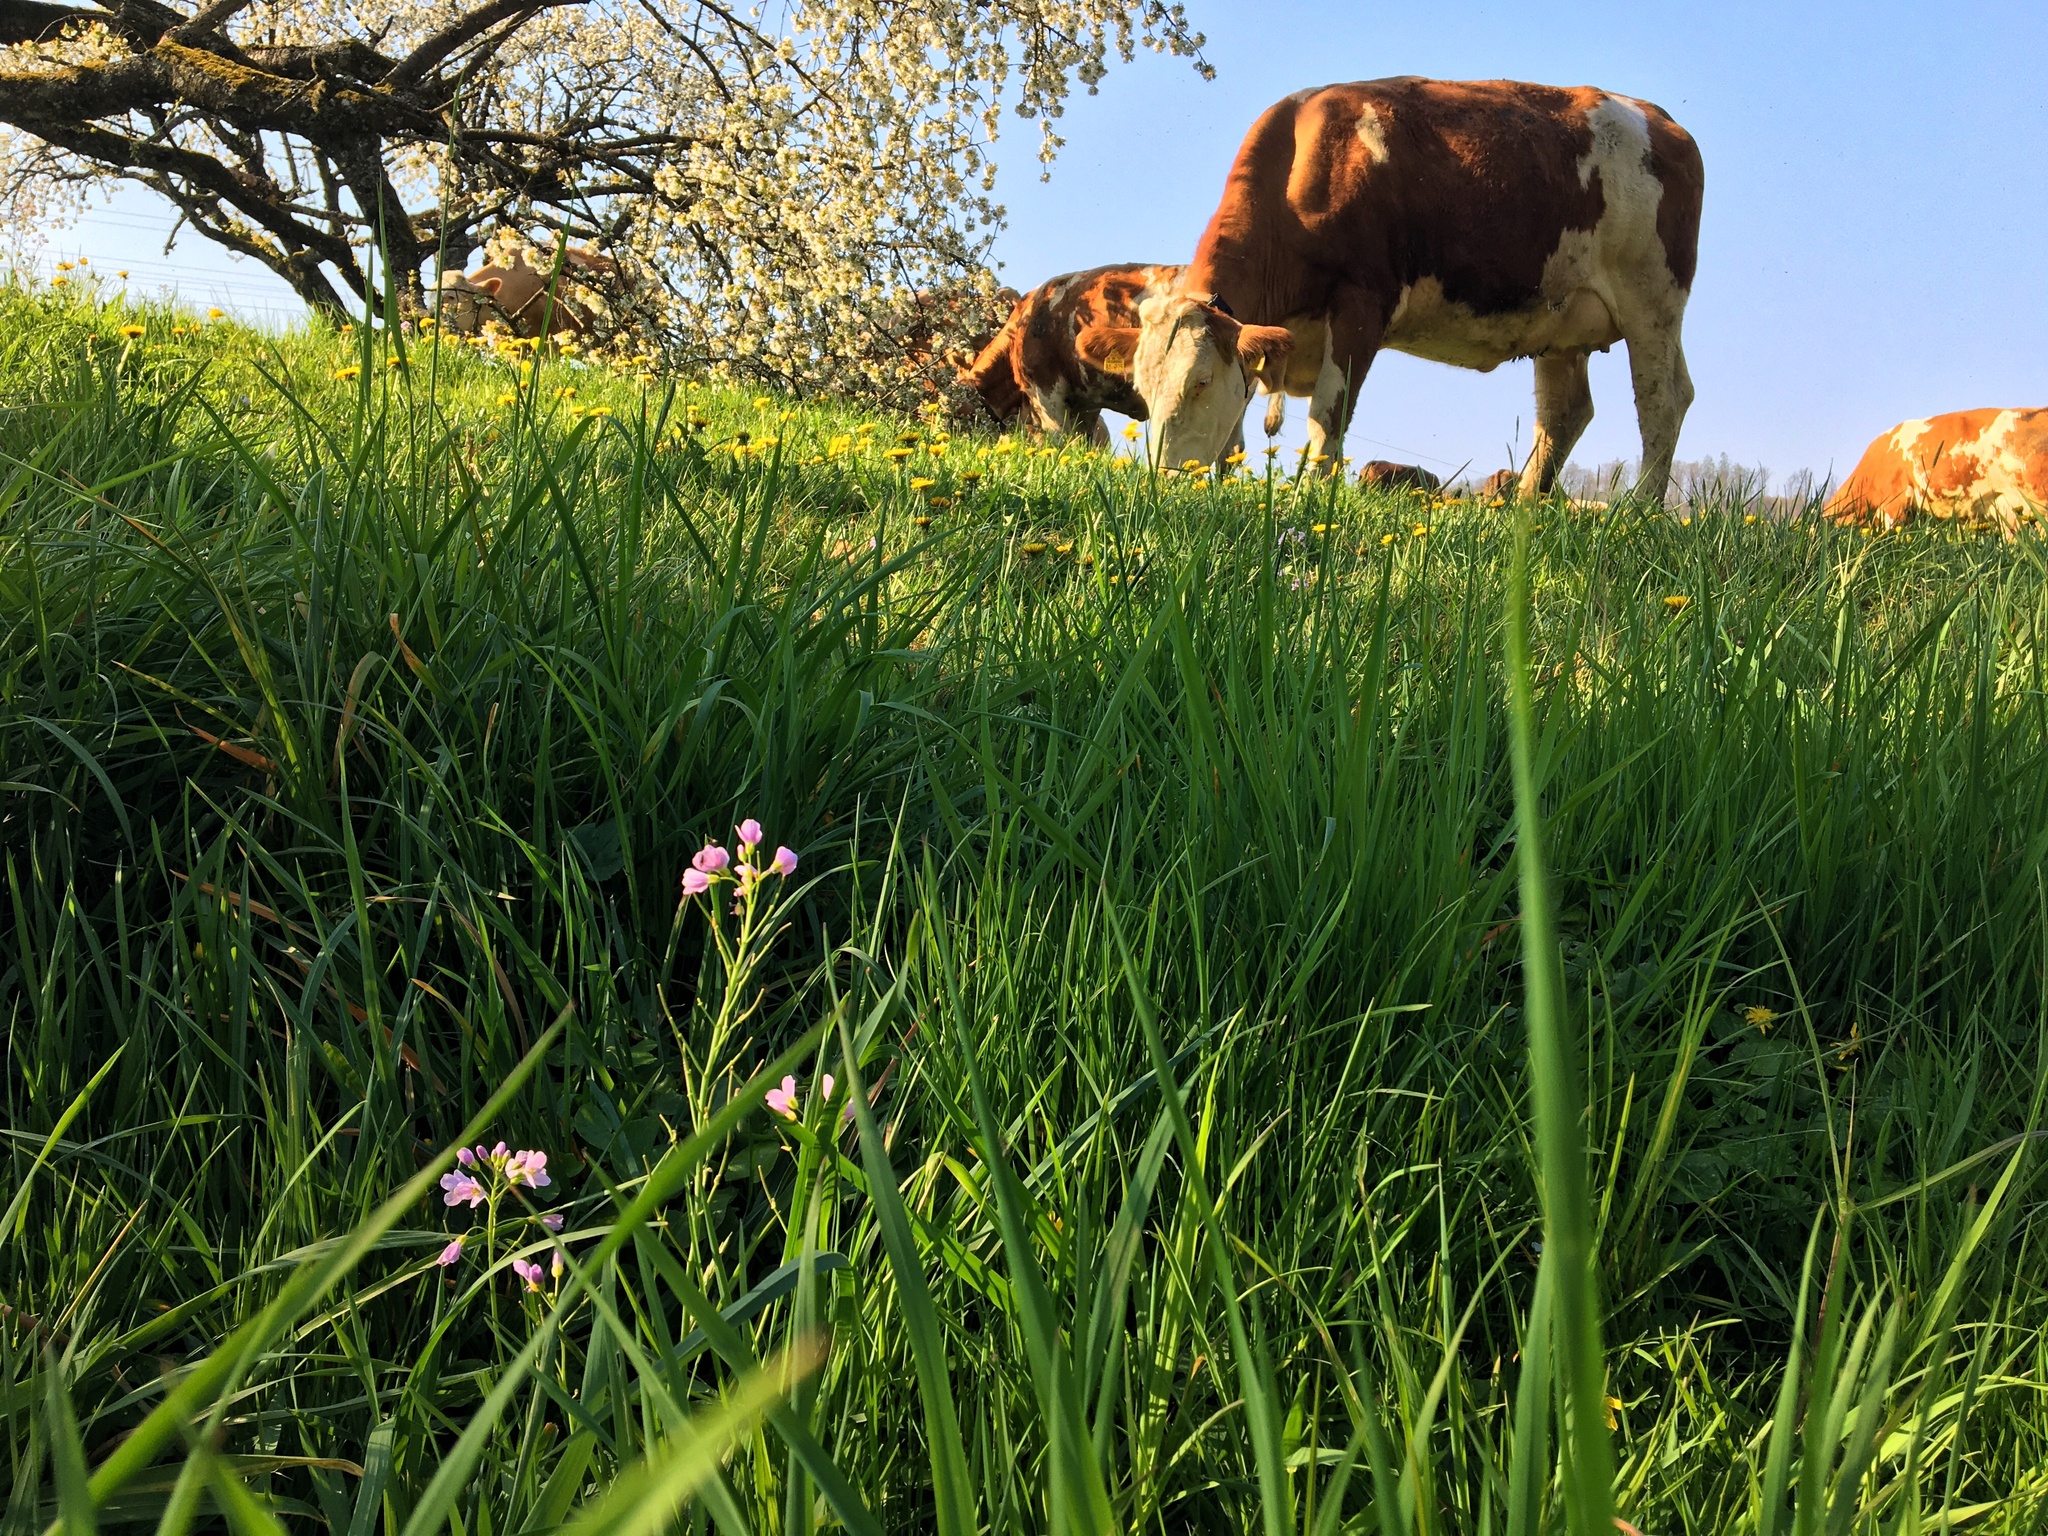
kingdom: Plantae
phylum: Tracheophyta
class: Magnoliopsida
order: Brassicales
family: Brassicaceae
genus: Cardamine
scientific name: Cardamine pratensis
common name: Cuckoo flower
